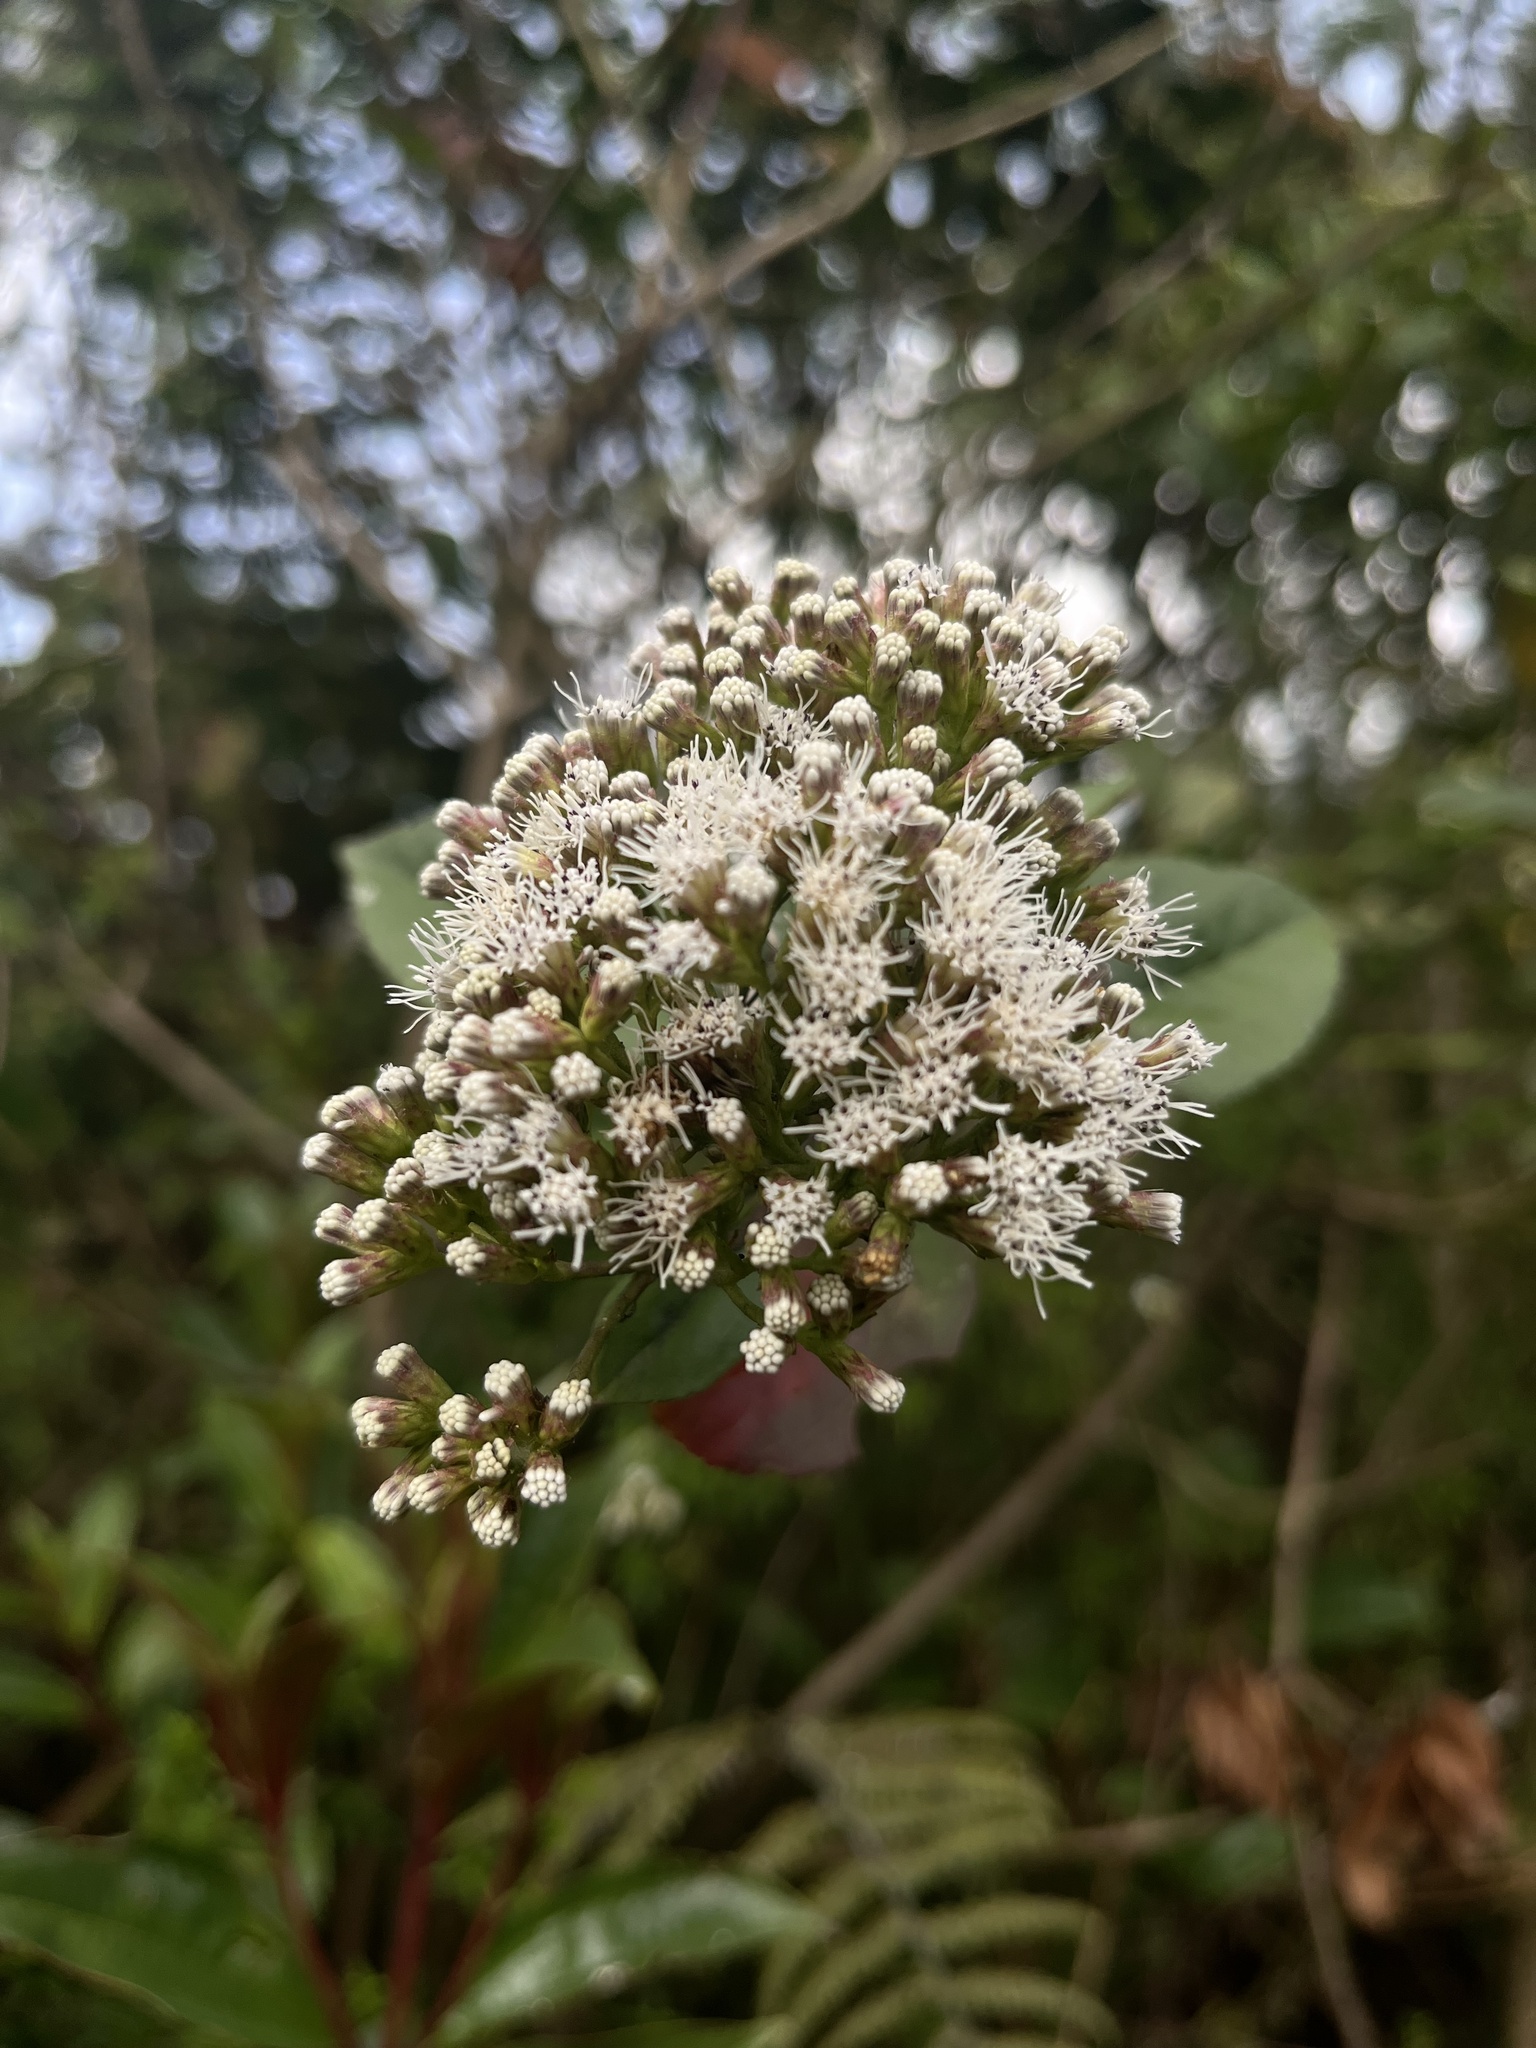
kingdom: Plantae
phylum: Tracheophyta
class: Magnoliopsida
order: Asterales
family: Asteraceae
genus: Ageratina
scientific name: Ageratina tinifolia
